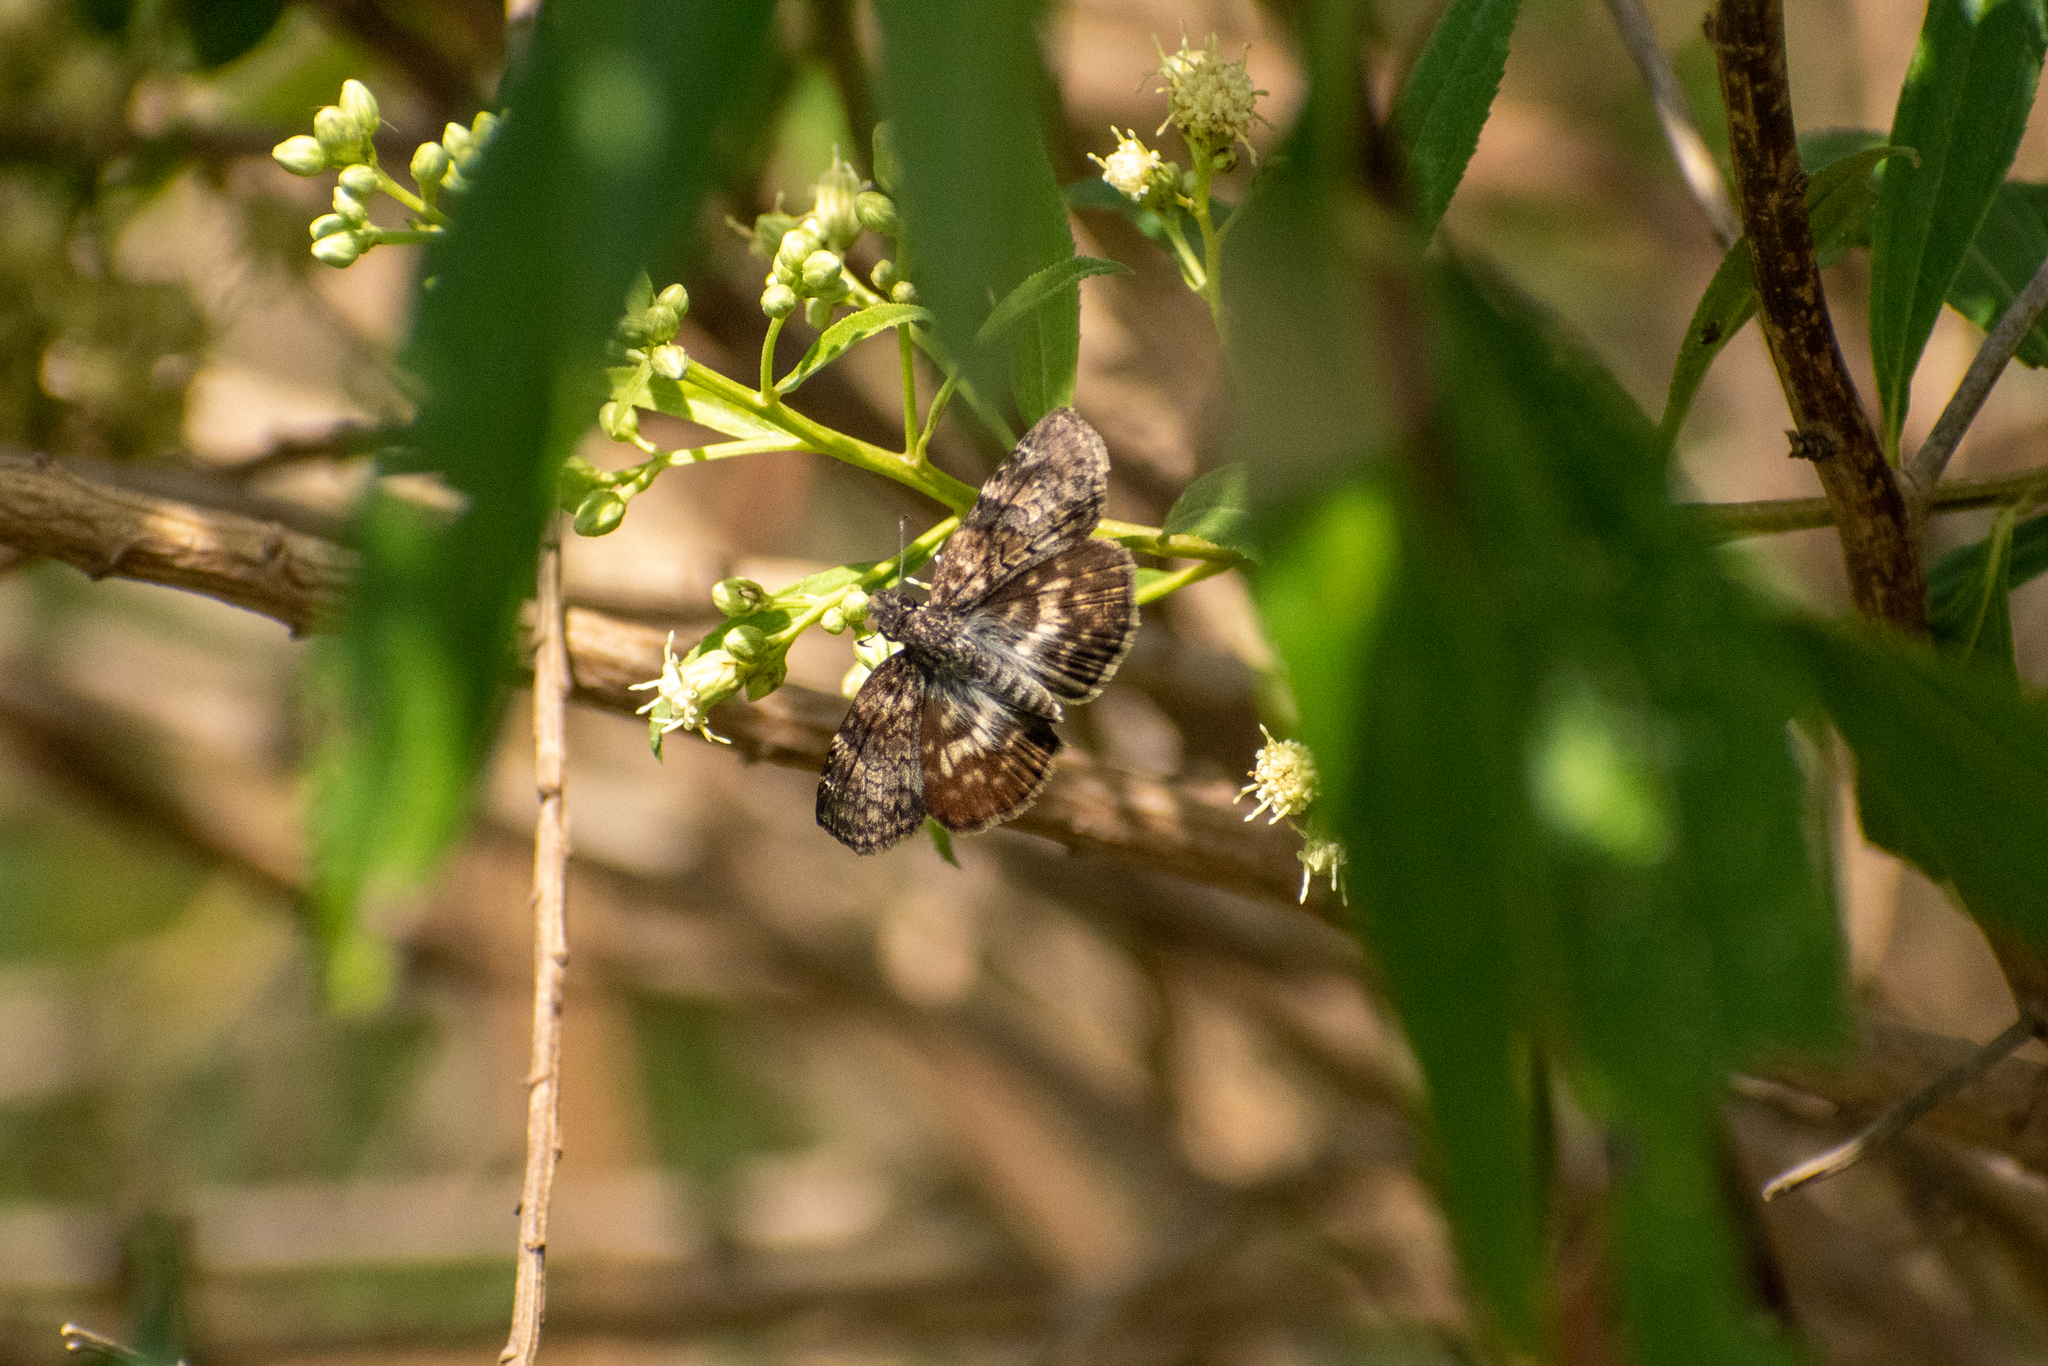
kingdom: Animalia
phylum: Arthropoda
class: Insecta
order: Lepidoptera
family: Hesperiidae
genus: Chiomara
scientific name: Chiomara asychis
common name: White-patterned skipper
